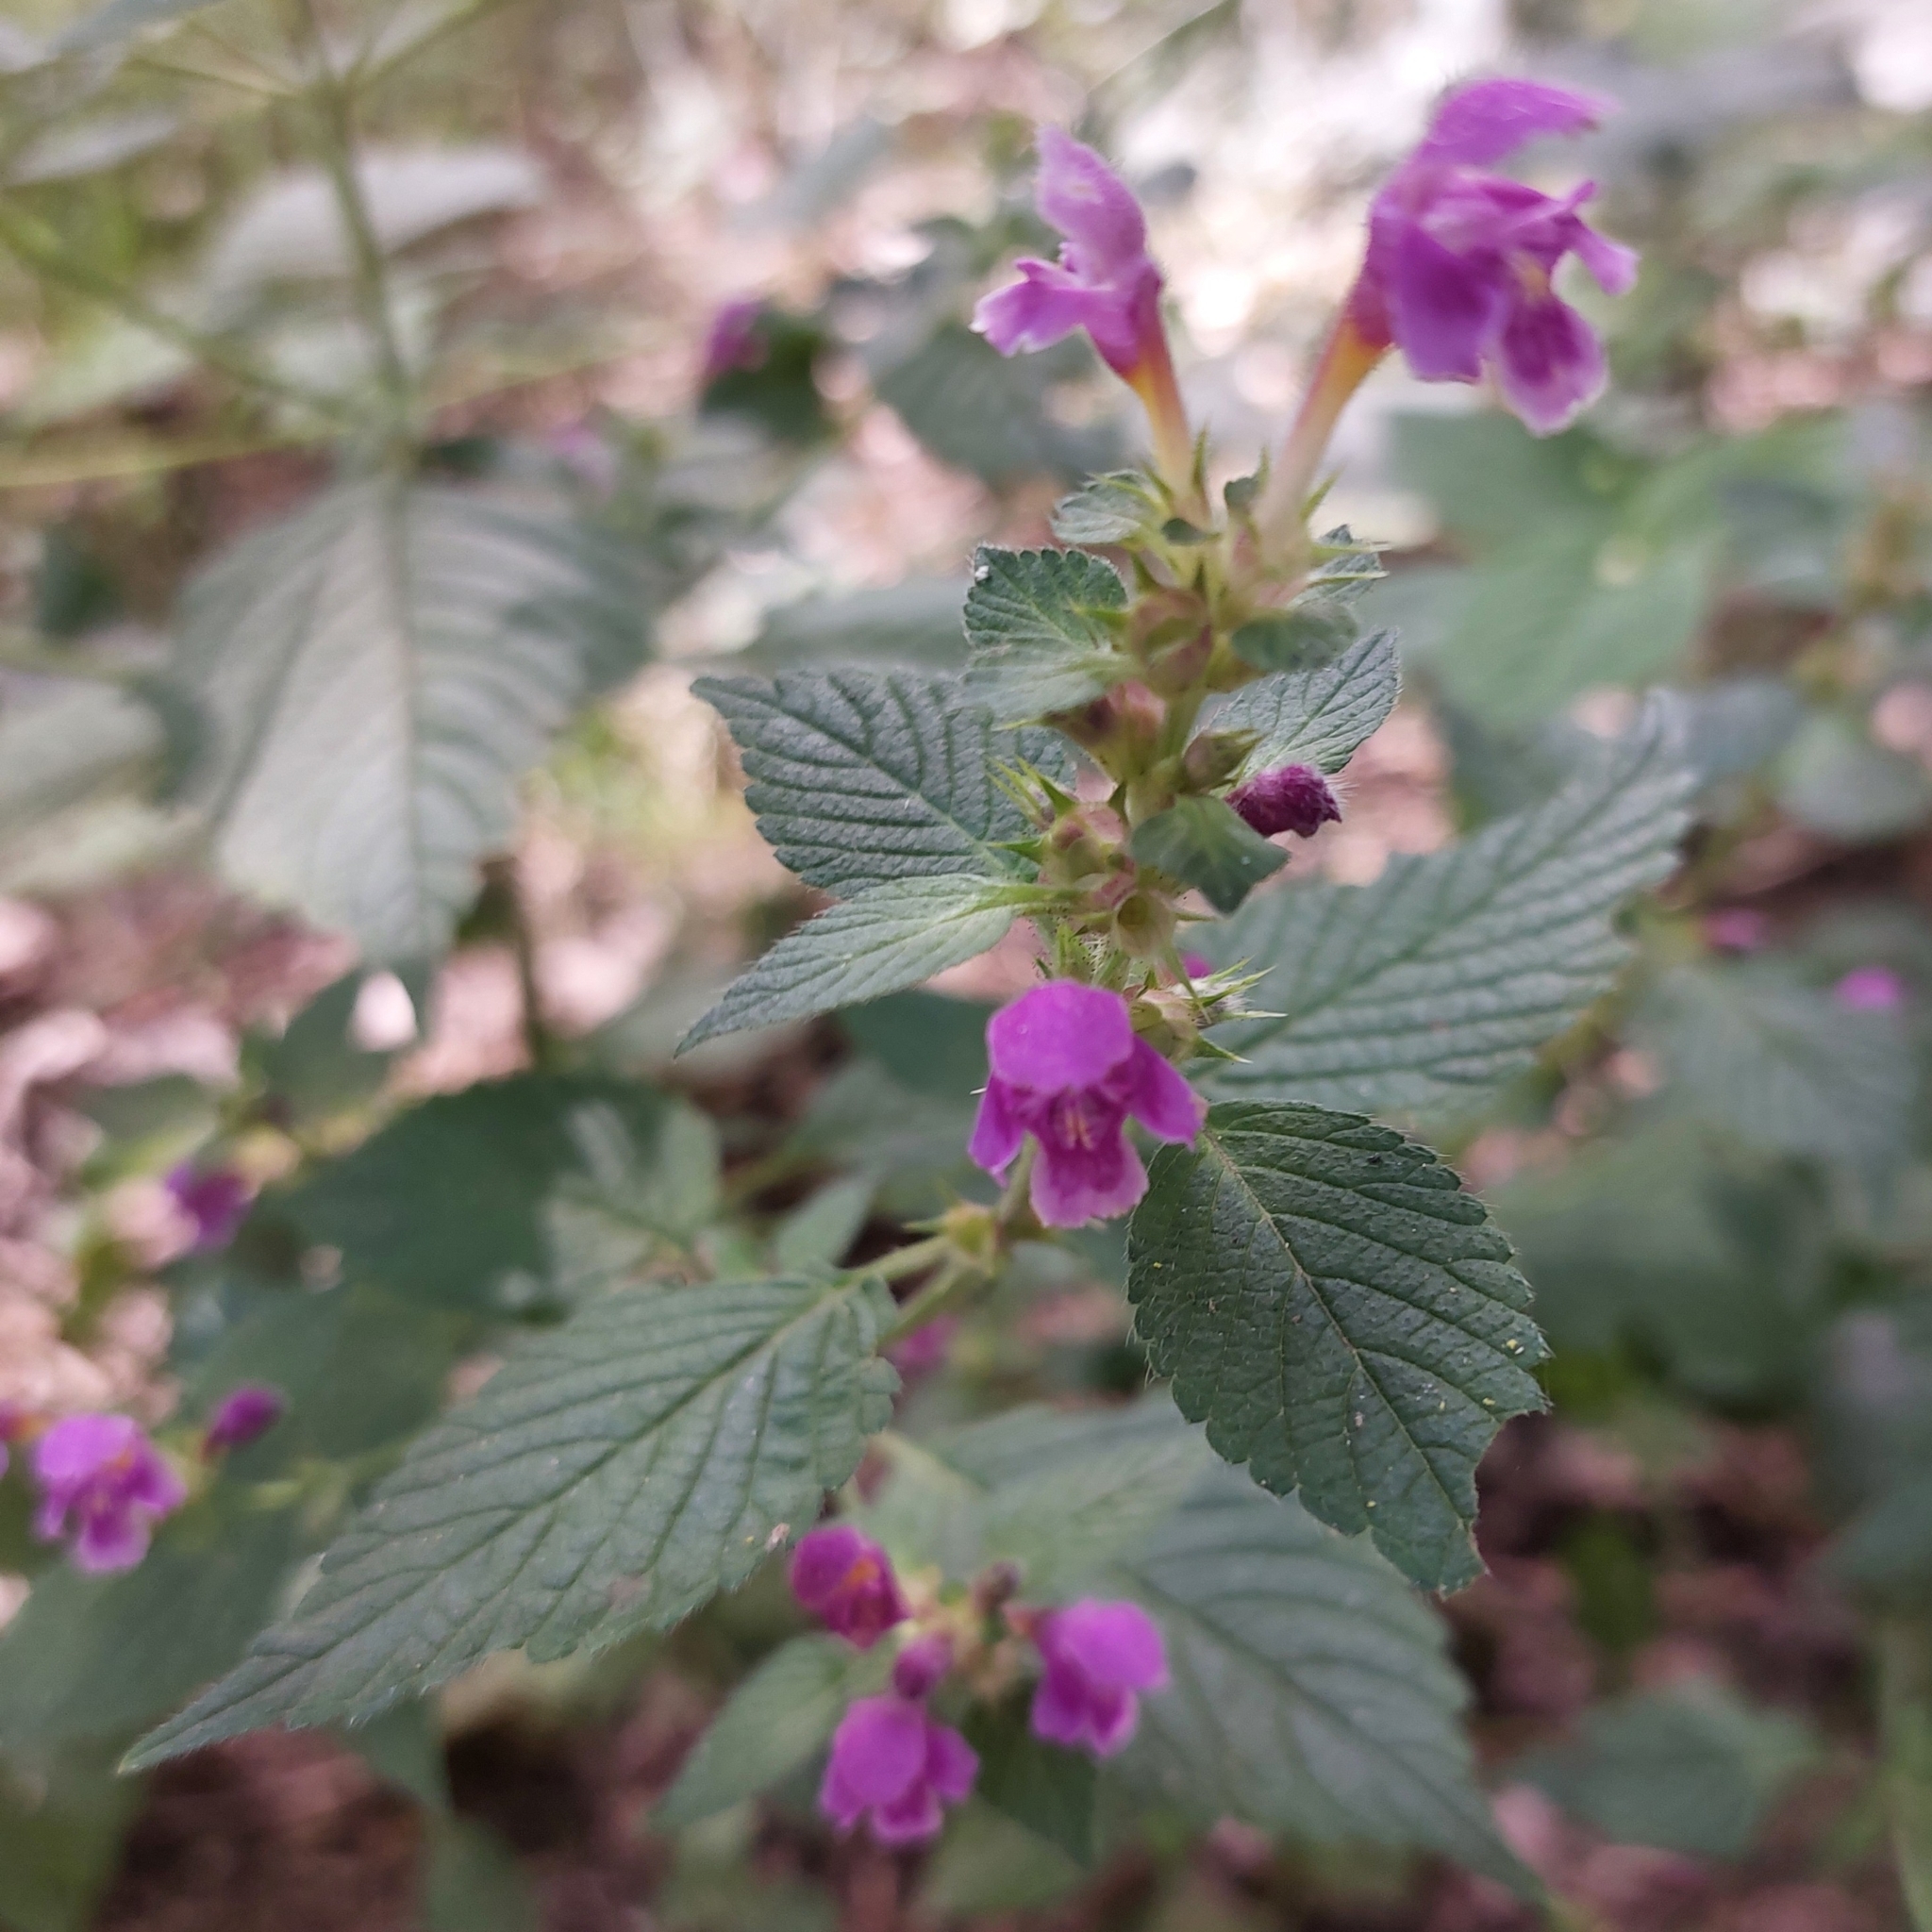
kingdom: Plantae
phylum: Tracheophyta
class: Magnoliopsida
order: Lamiales
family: Lamiaceae
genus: Galeopsis
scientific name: Galeopsis pubescens
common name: Downy hemp-nettle
